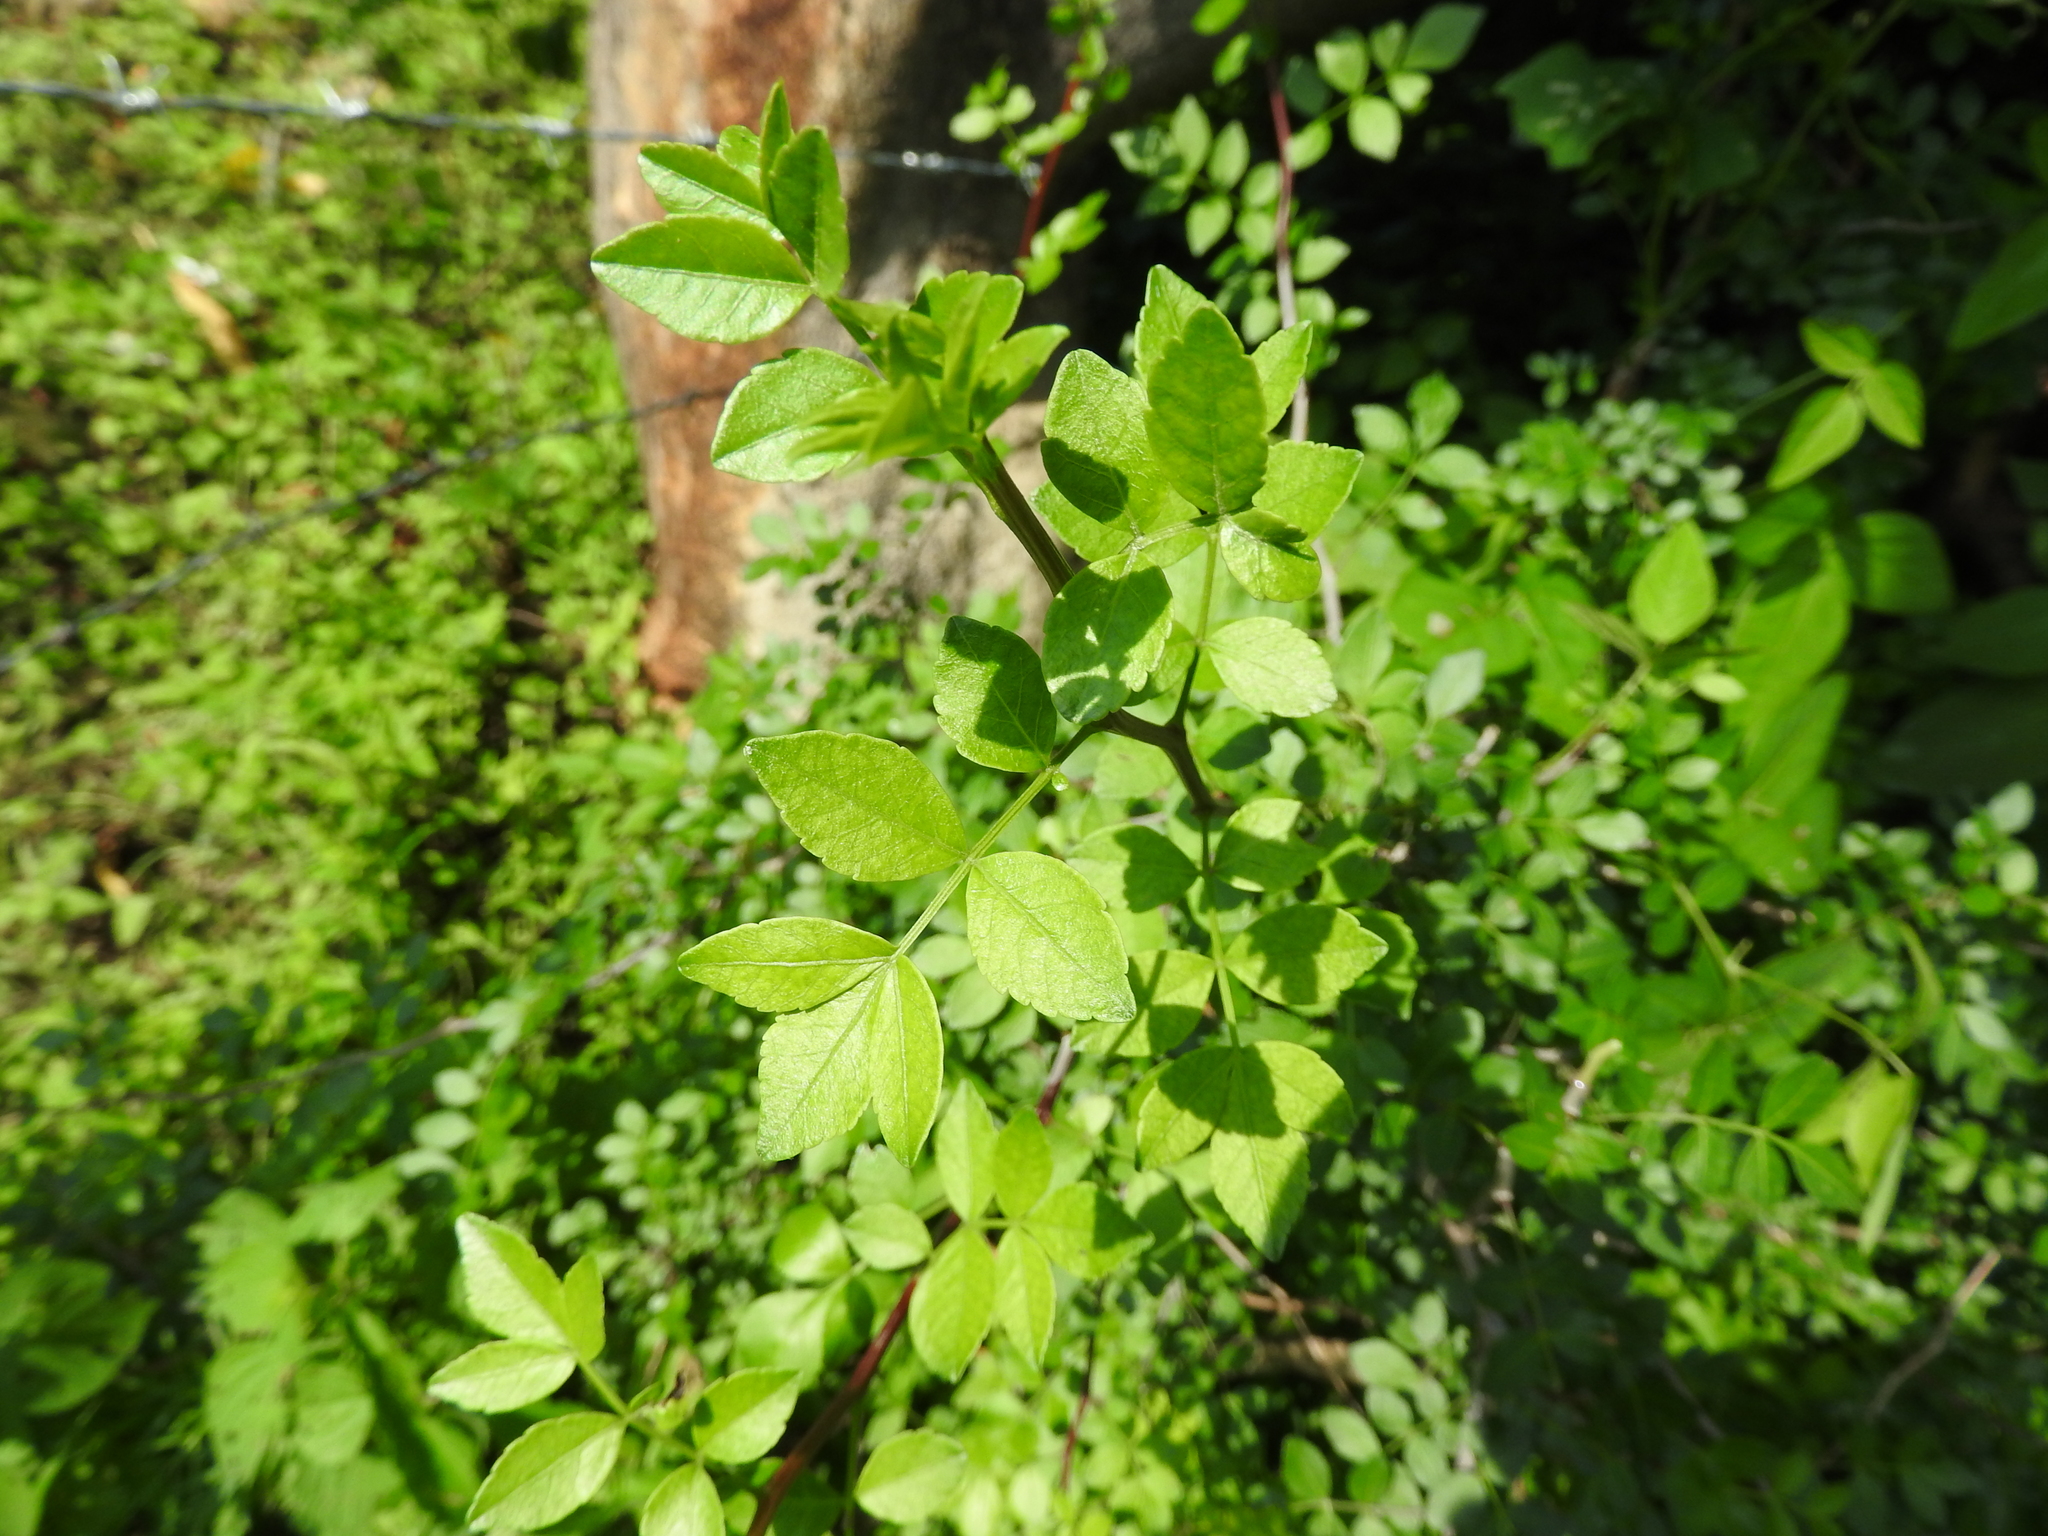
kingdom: Plantae
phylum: Tracheophyta
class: Magnoliopsida
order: Sapindales
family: Burseraceae
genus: Bursera
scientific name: Bursera fagaroides
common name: Elephant tree
